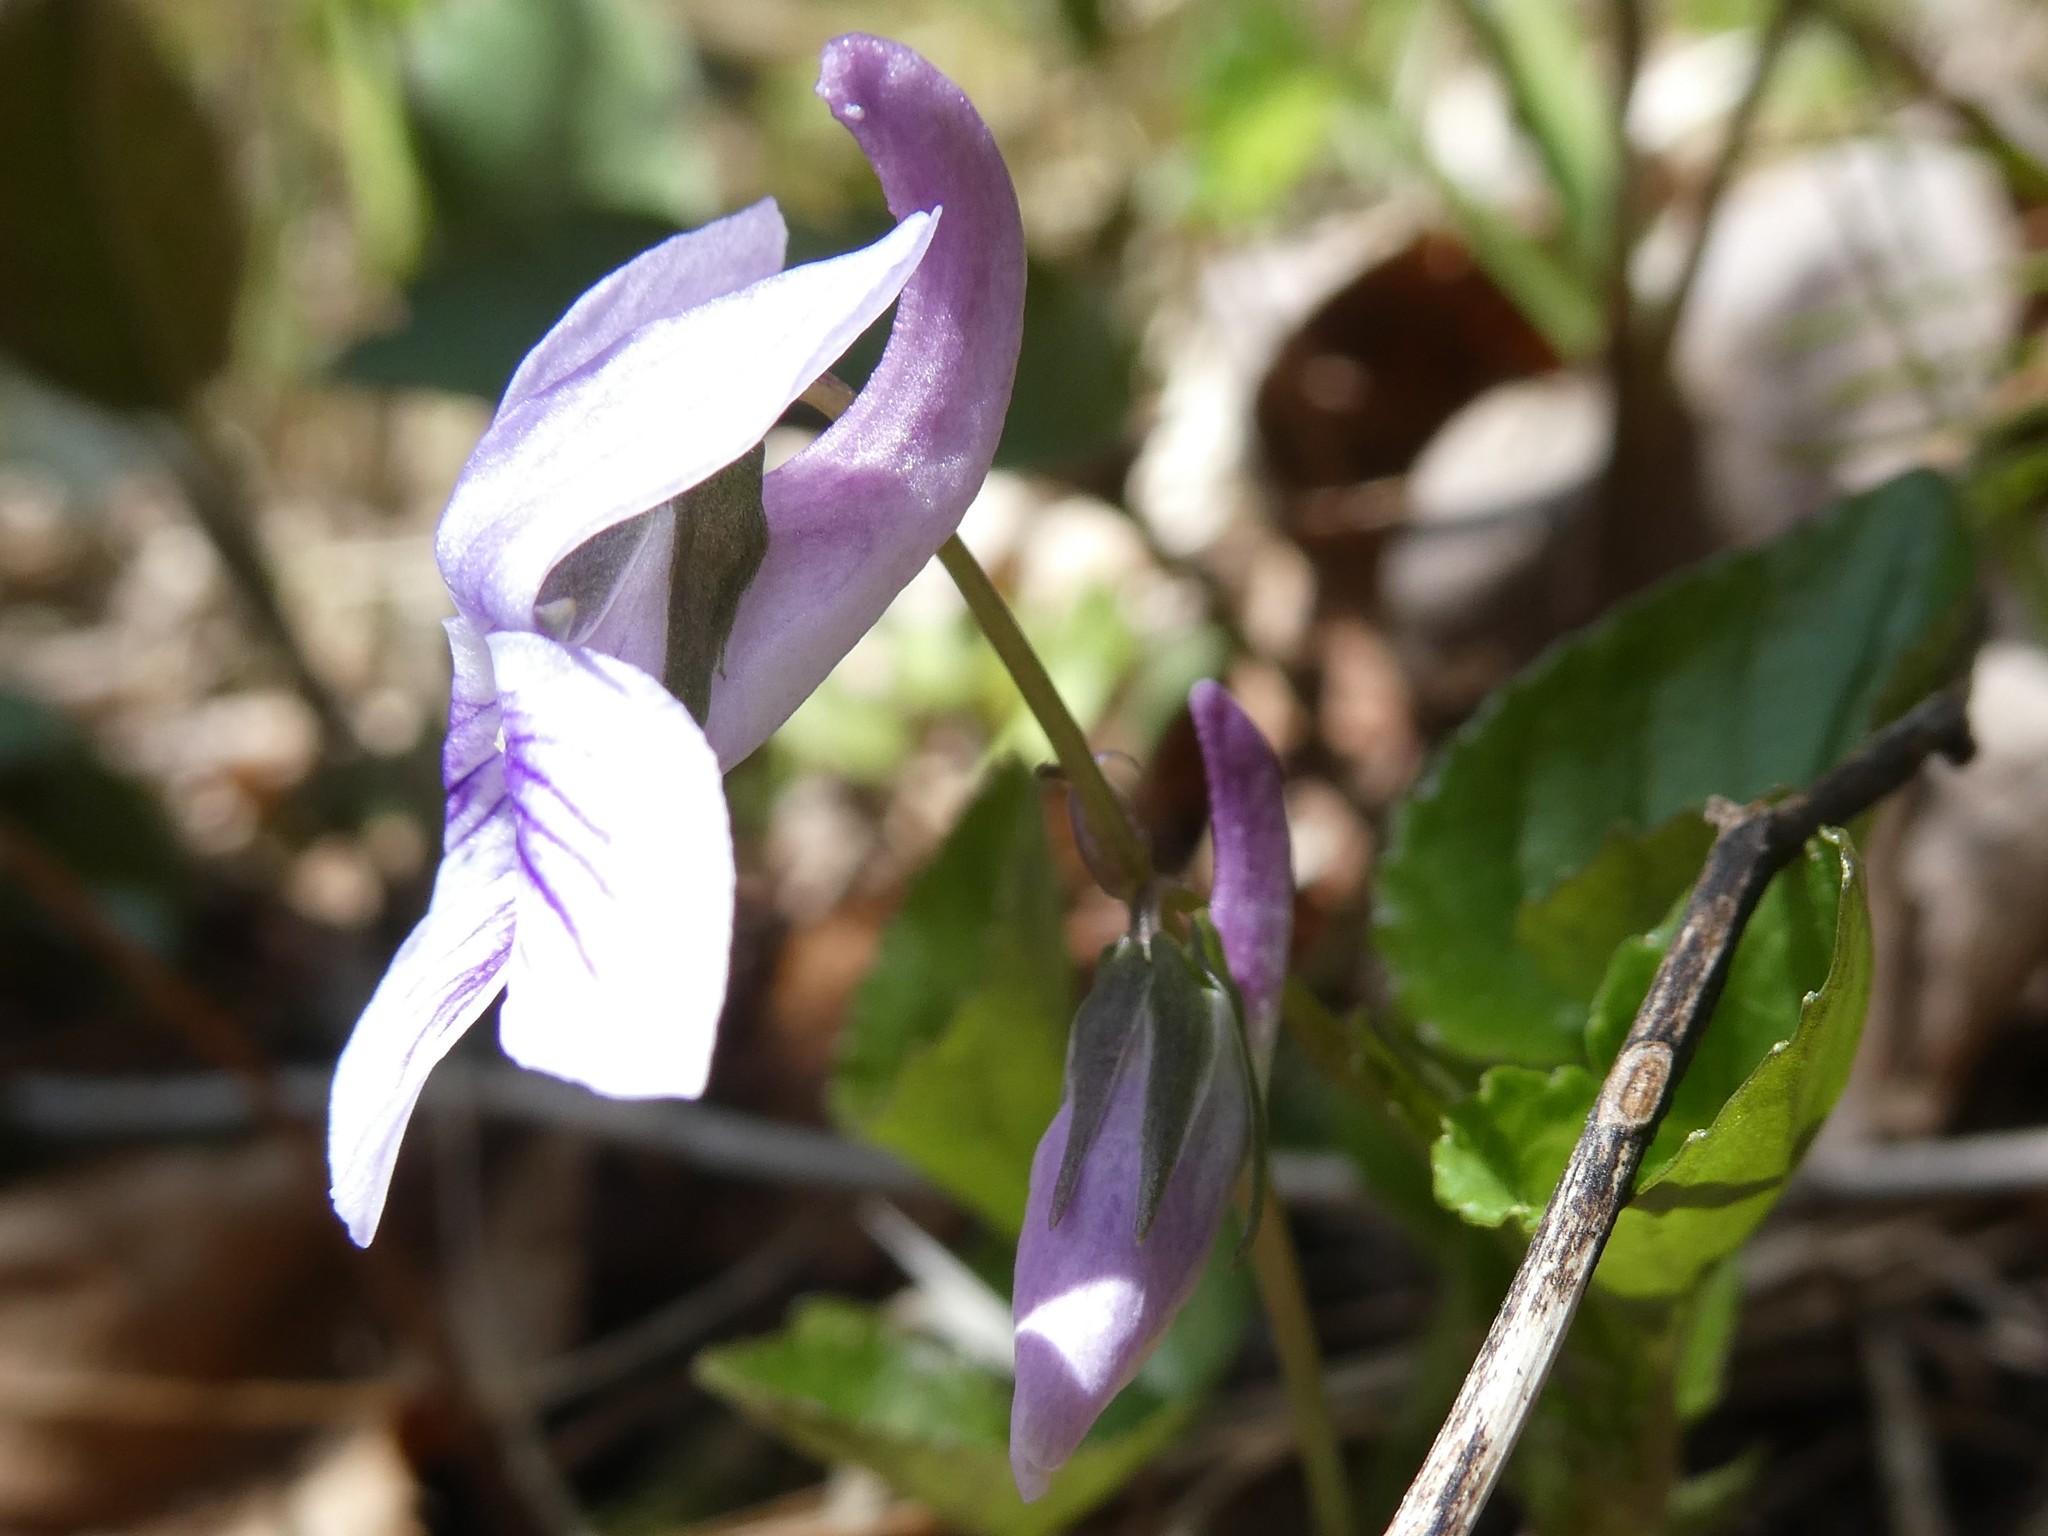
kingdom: Plantae
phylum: Tracheophyta
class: Magnoliopsida
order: Malpighiales
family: Violaceae
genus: Viola
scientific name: Viola rostrata
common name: Long-spur violet
